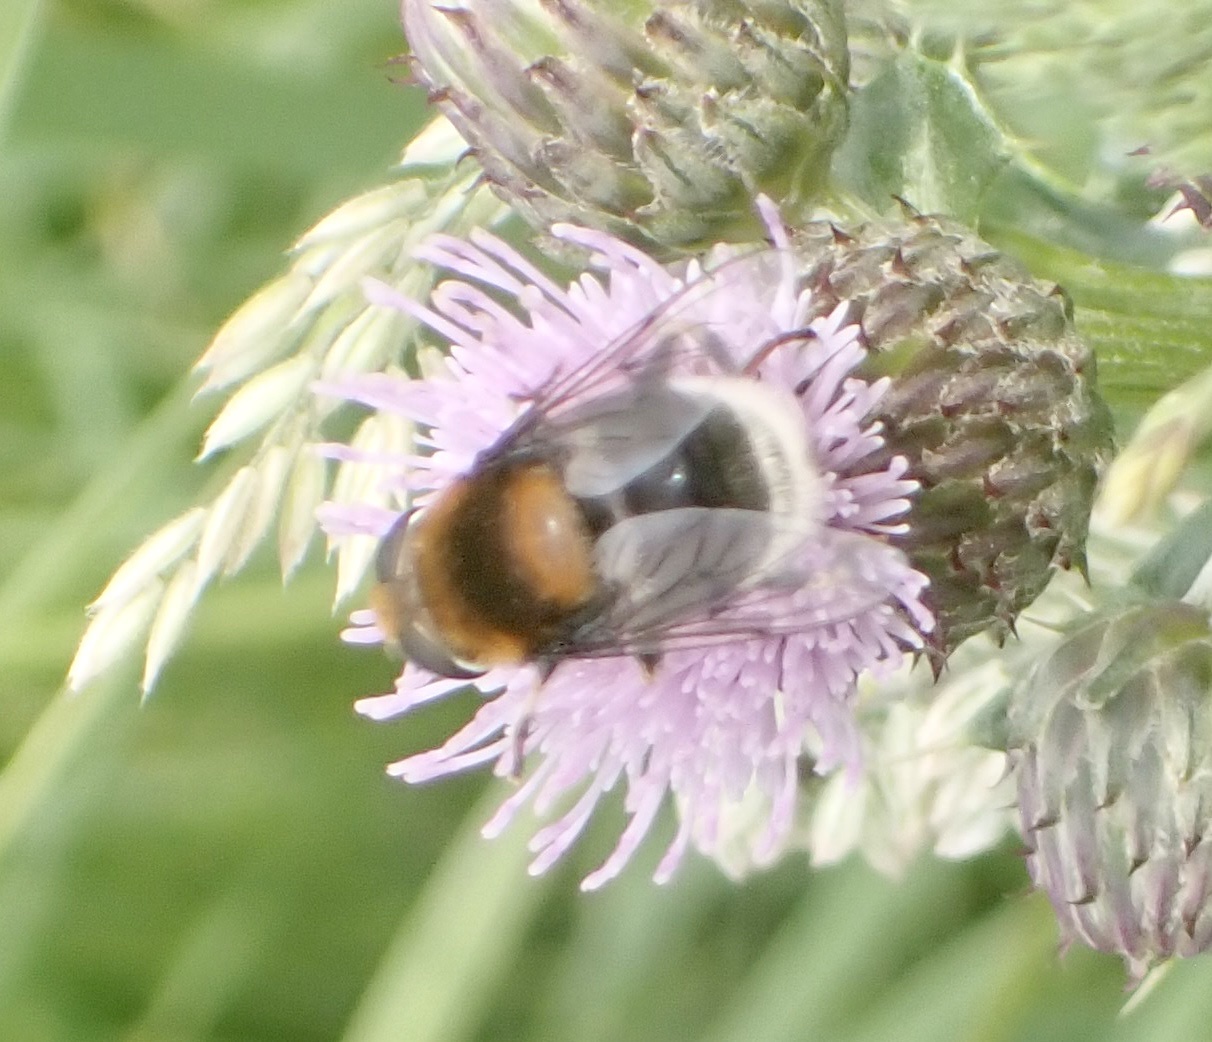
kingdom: Animalia
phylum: Arthropoda
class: Insecta
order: Diptera
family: Syrphidae
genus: Eristalis
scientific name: Eristalis intricaria
